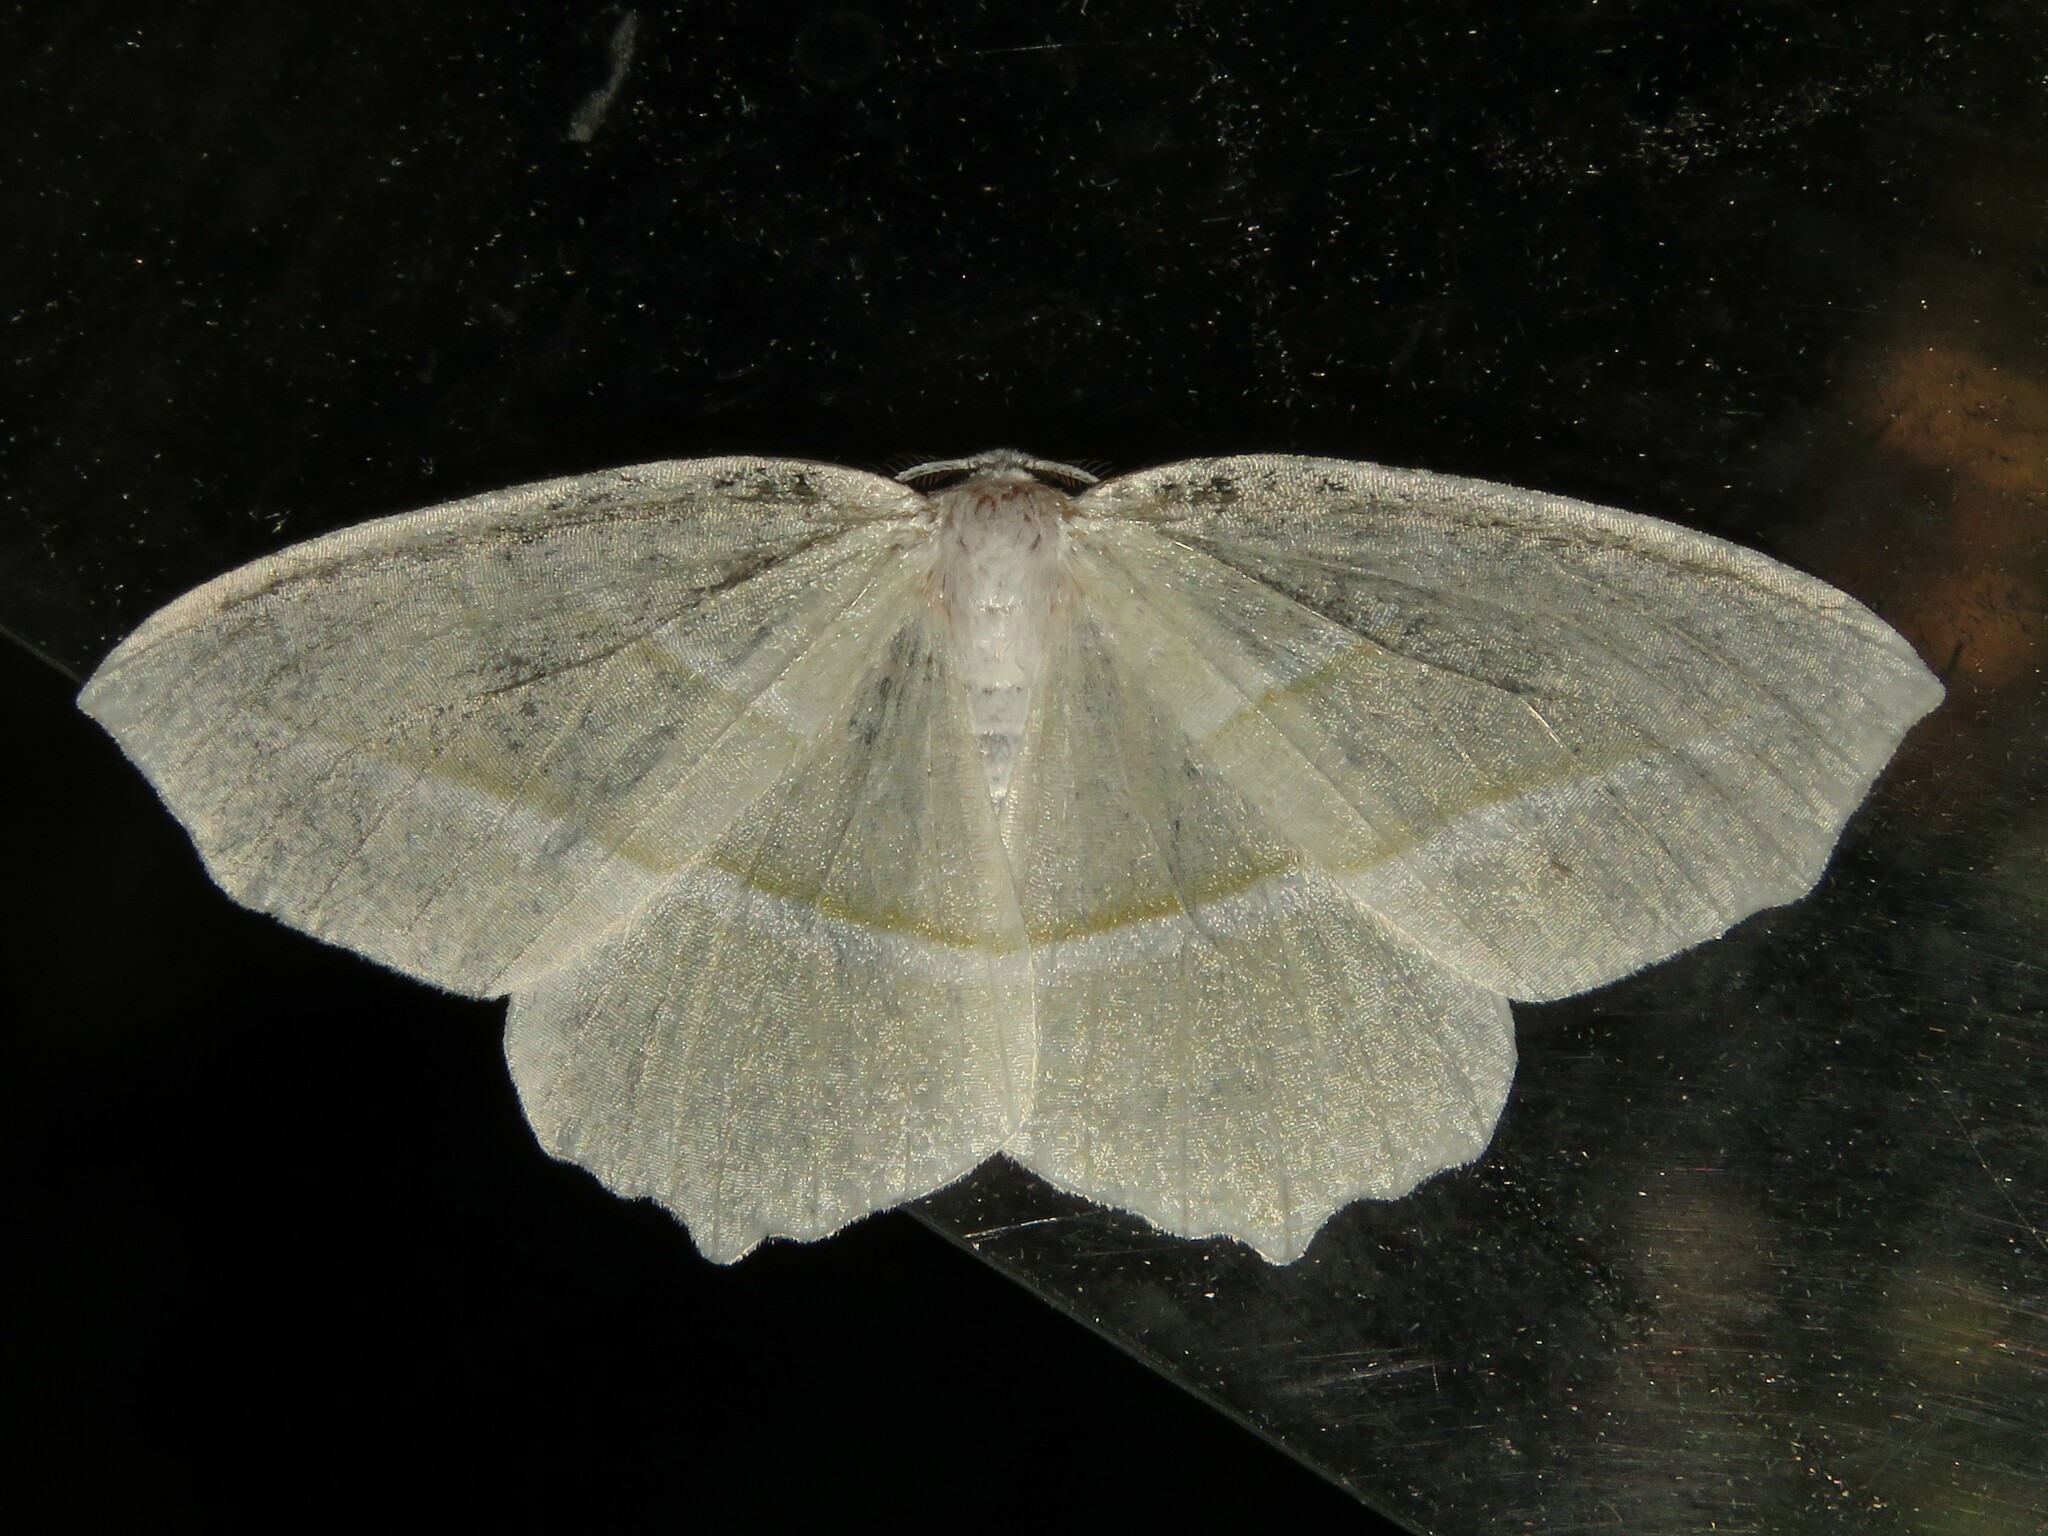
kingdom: Animalia
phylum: Arthropoda
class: Insecta
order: Lepidoptera
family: Geometridae
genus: Campaea
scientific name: Campaea perlata
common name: Fringed looper
